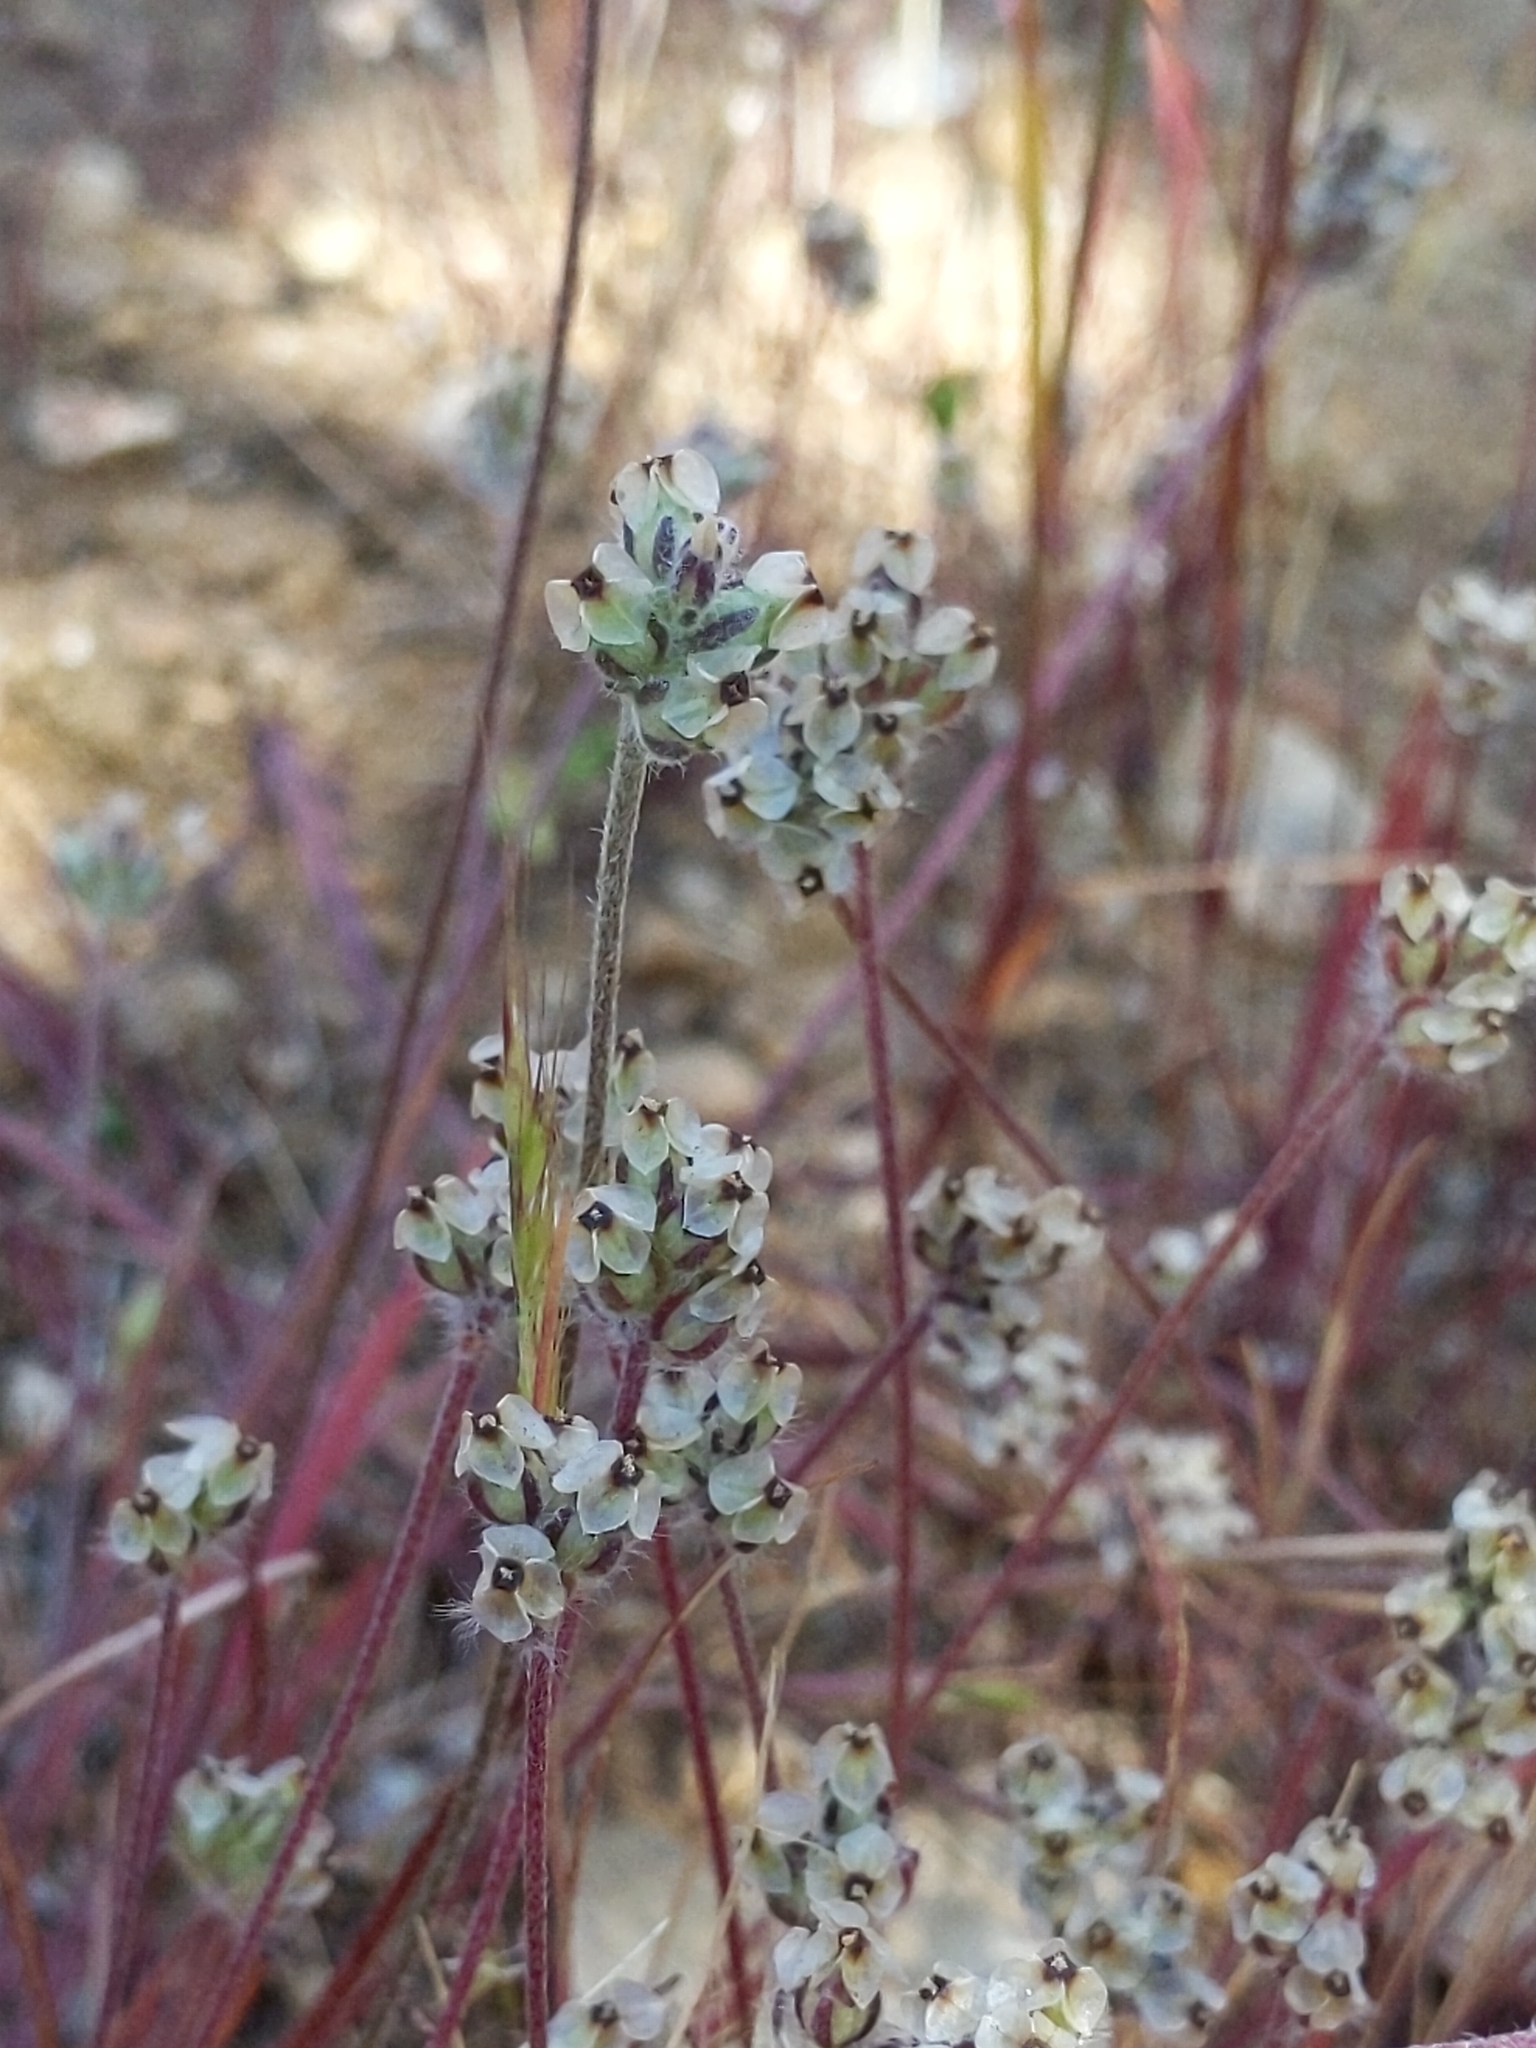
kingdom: Plantae
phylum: Tracheophyta
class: Magnoliopsida
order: Lamiales
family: Plantaginaceae
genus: Plantago
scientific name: Plantago erecta
